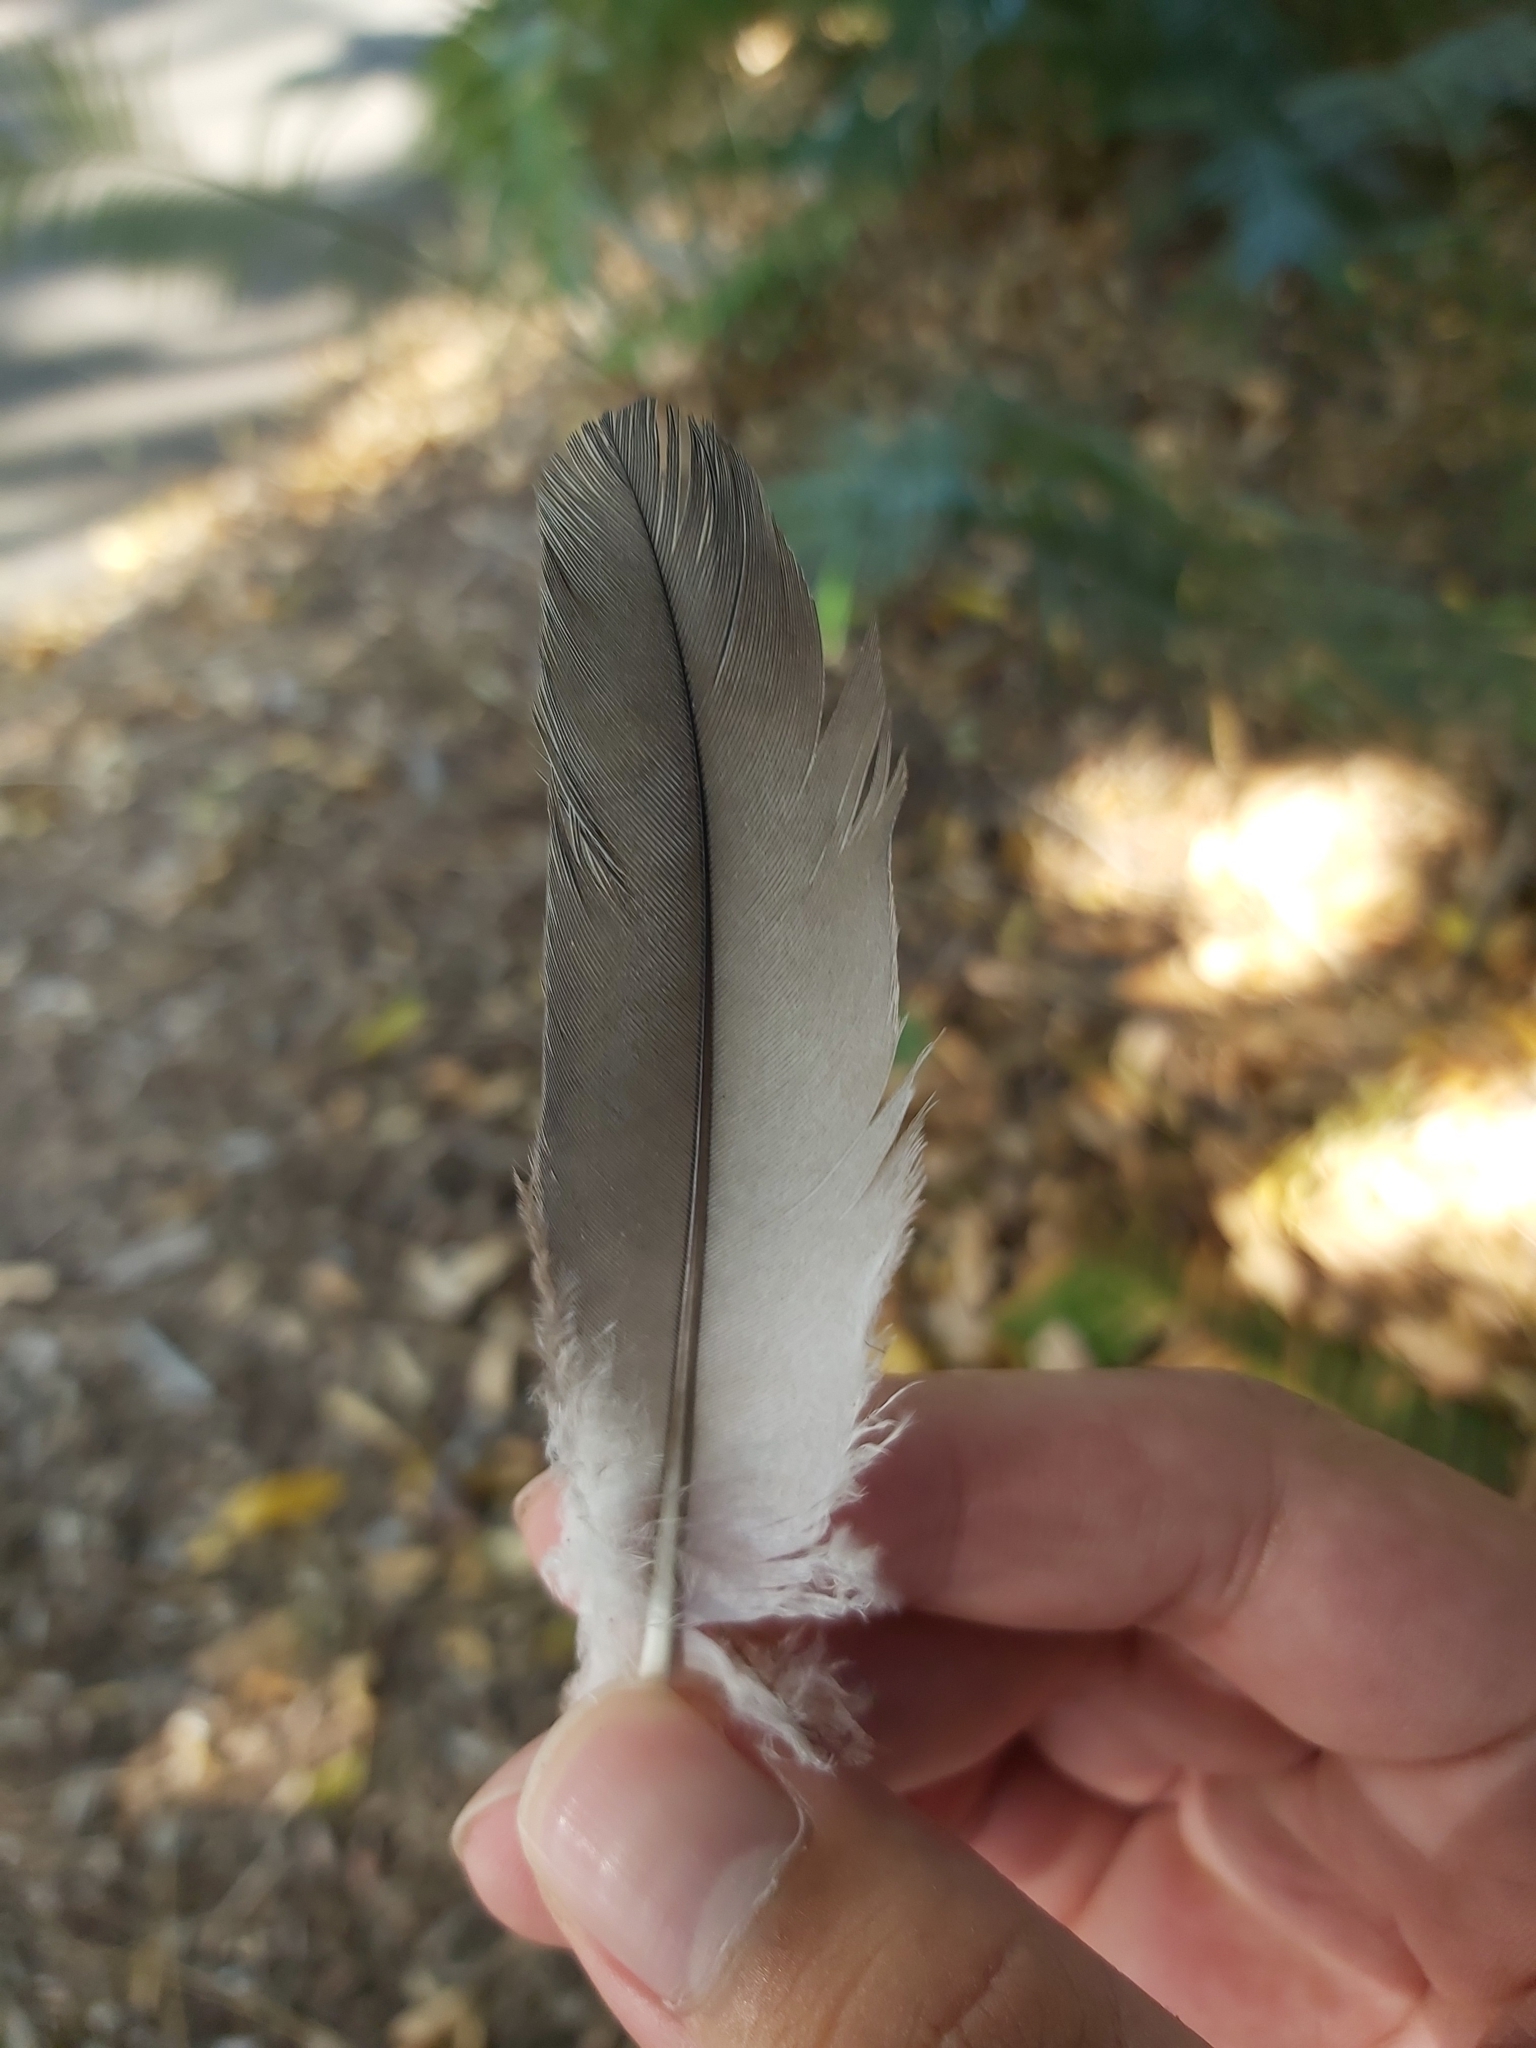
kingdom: Animalia
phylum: Chordata
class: Aves
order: Columbiformes
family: Columbidae
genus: Lopholaimus
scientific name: Lopholaimus antarcticus
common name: Topknot pigeon
